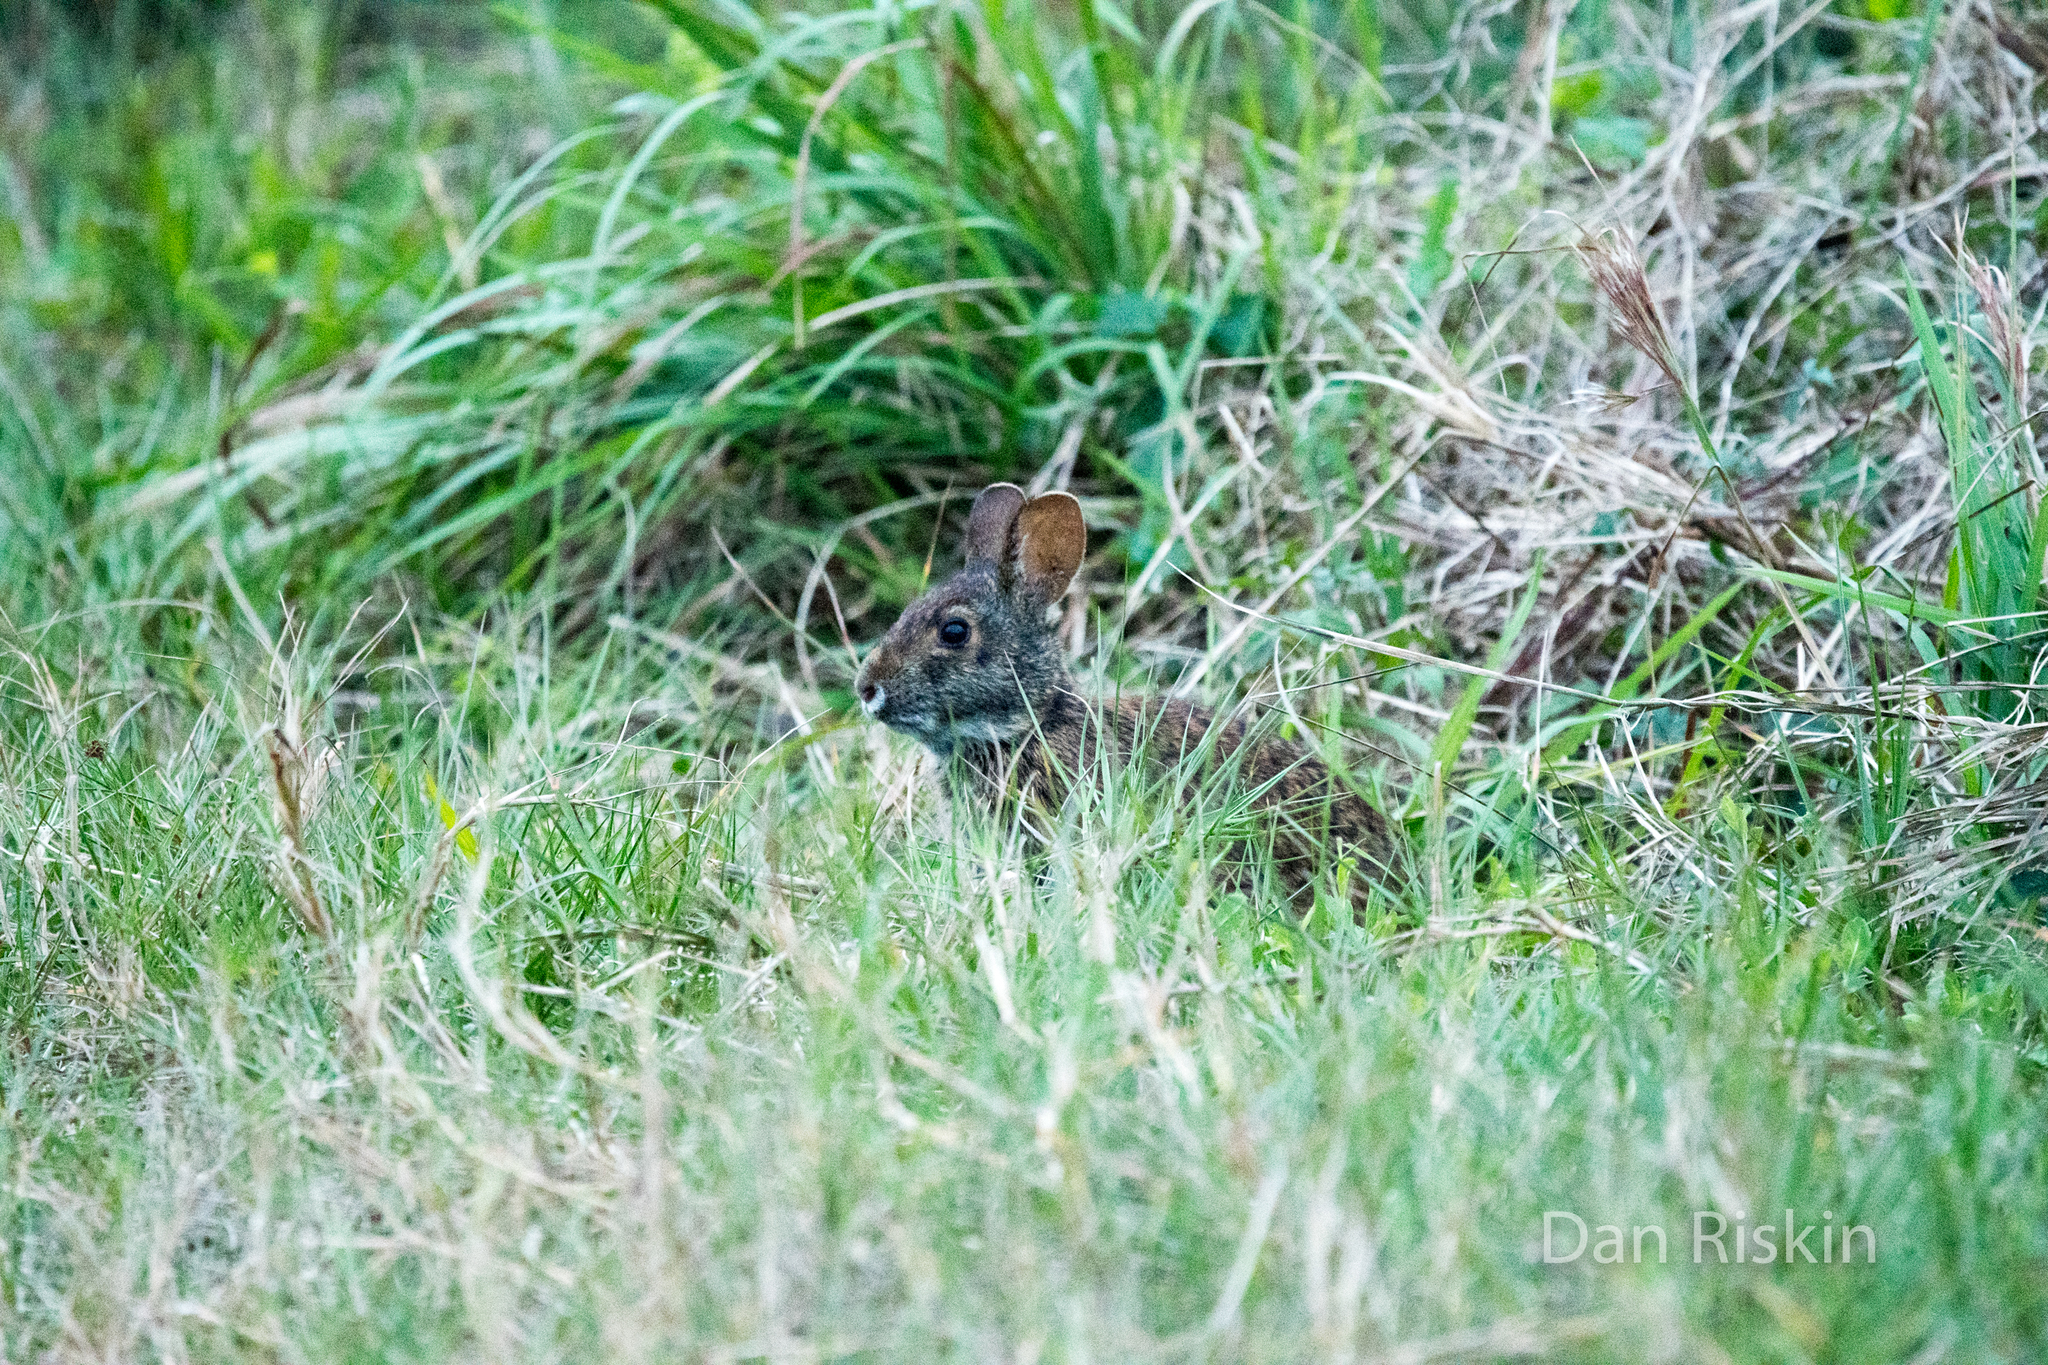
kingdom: Animalia
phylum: Chordata
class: Mammalia
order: Lagomorpha
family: Leporidae
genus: Sylvilagus
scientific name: Sylvilagus palustris
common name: Marsh rabbit
